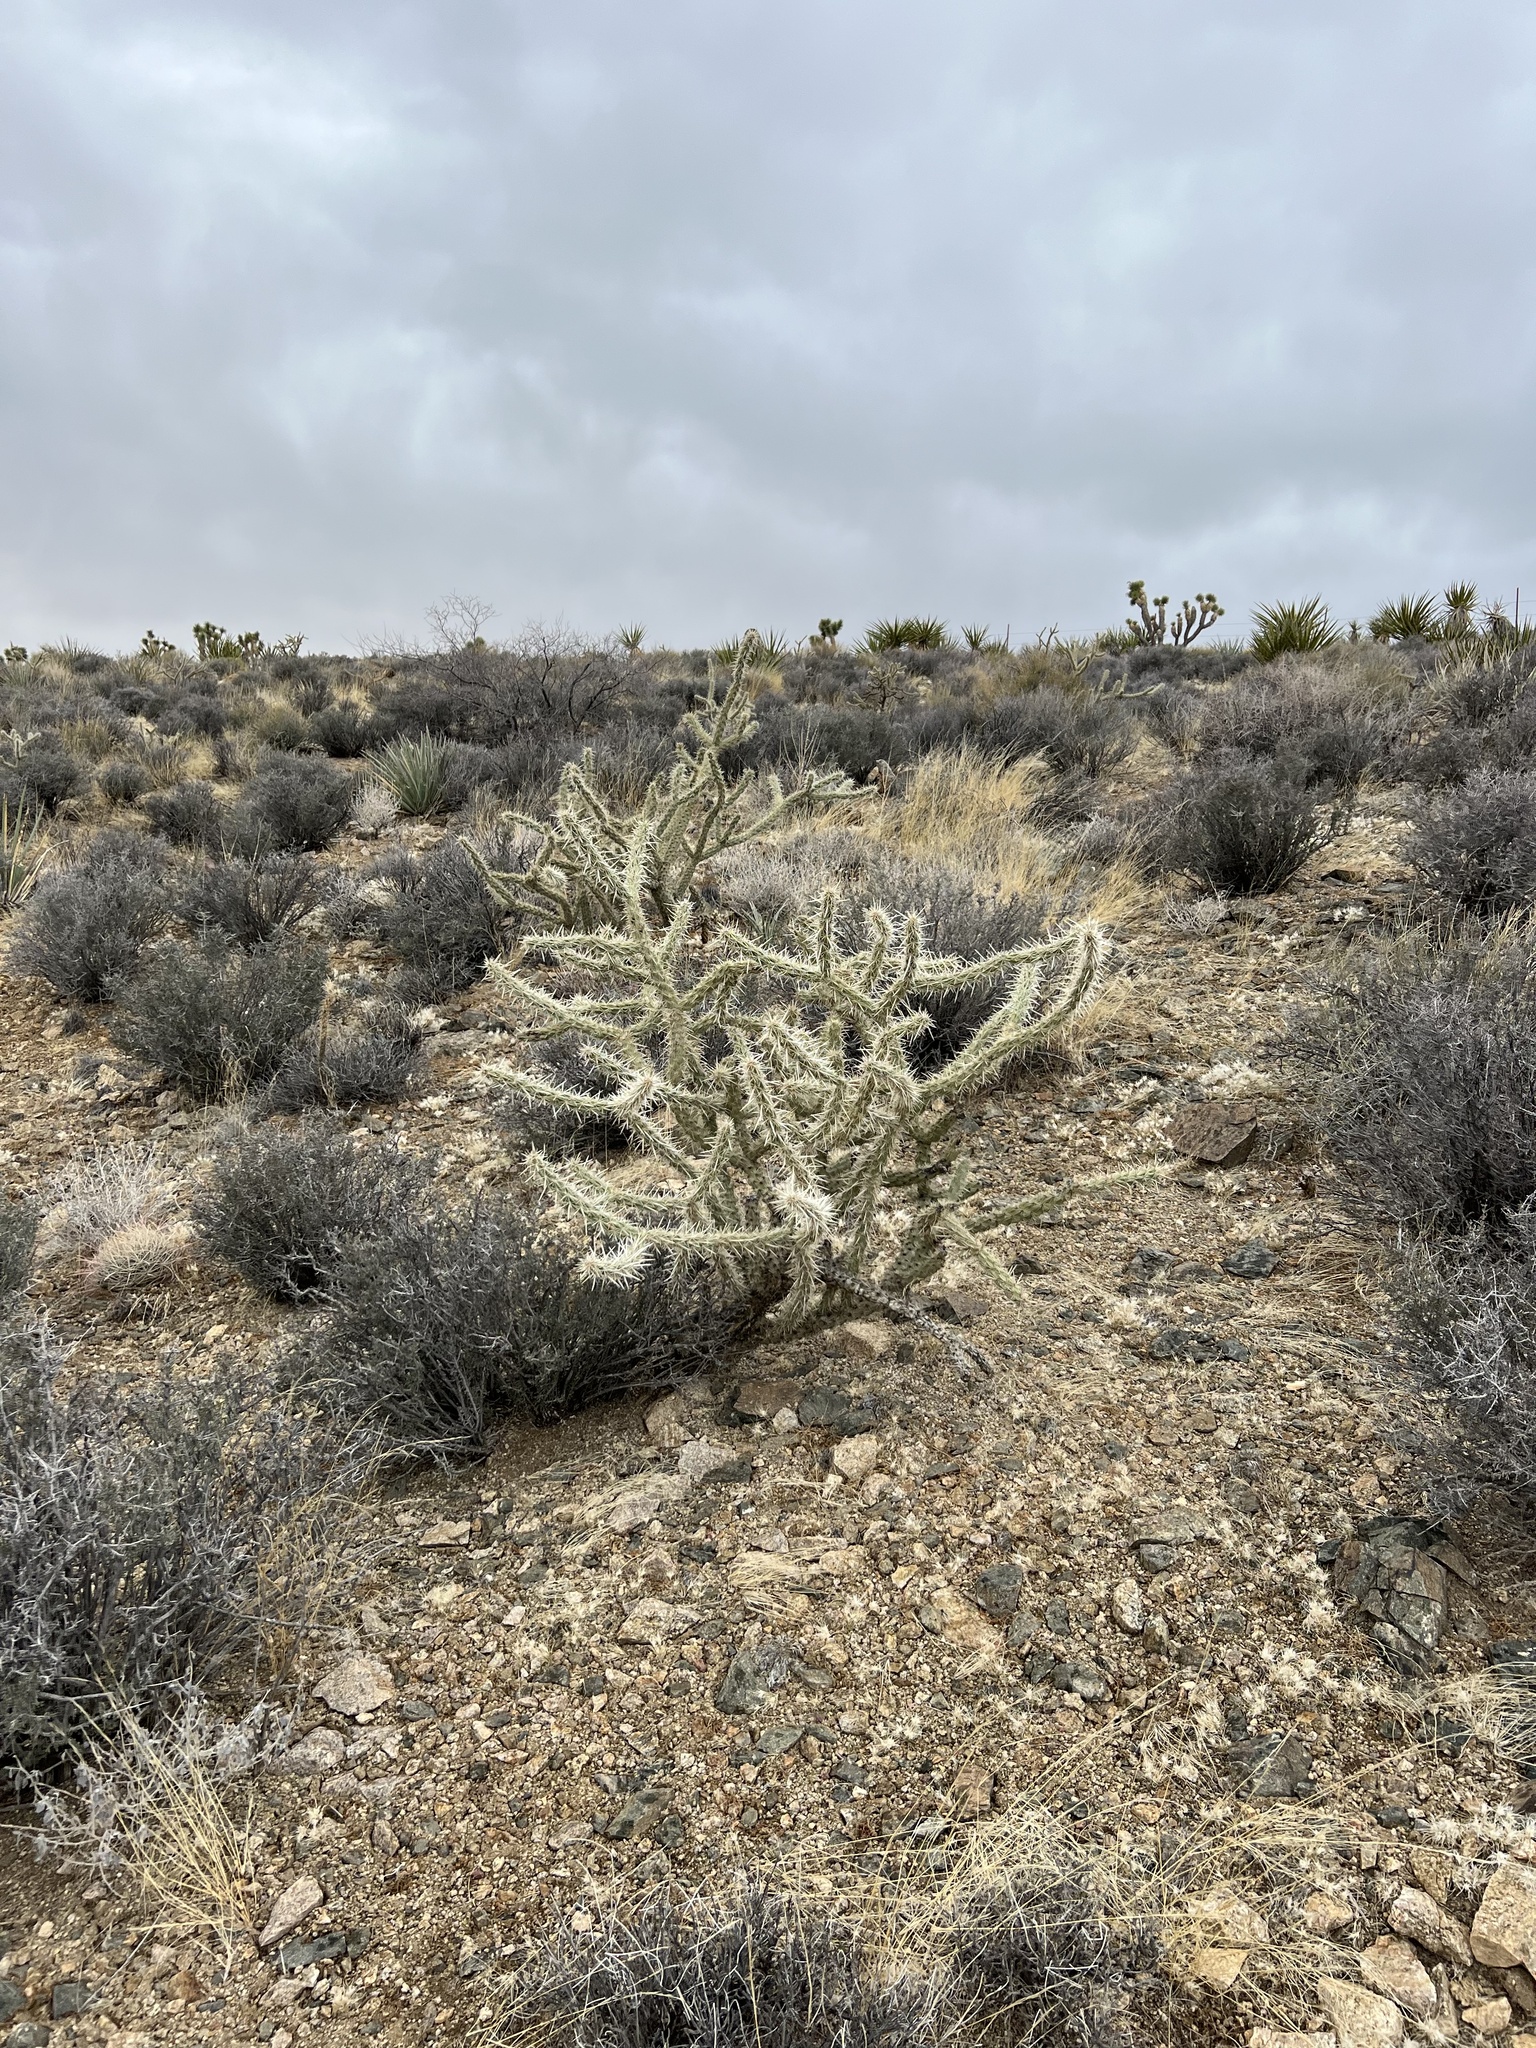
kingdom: Plantae
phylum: Tracheophyta
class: Magnoliopsida
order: Caryophyllales
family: Cactaceae
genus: Cylindropuntia
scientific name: Cylindropuntia acanthocarpa
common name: Buckhorn cholla
